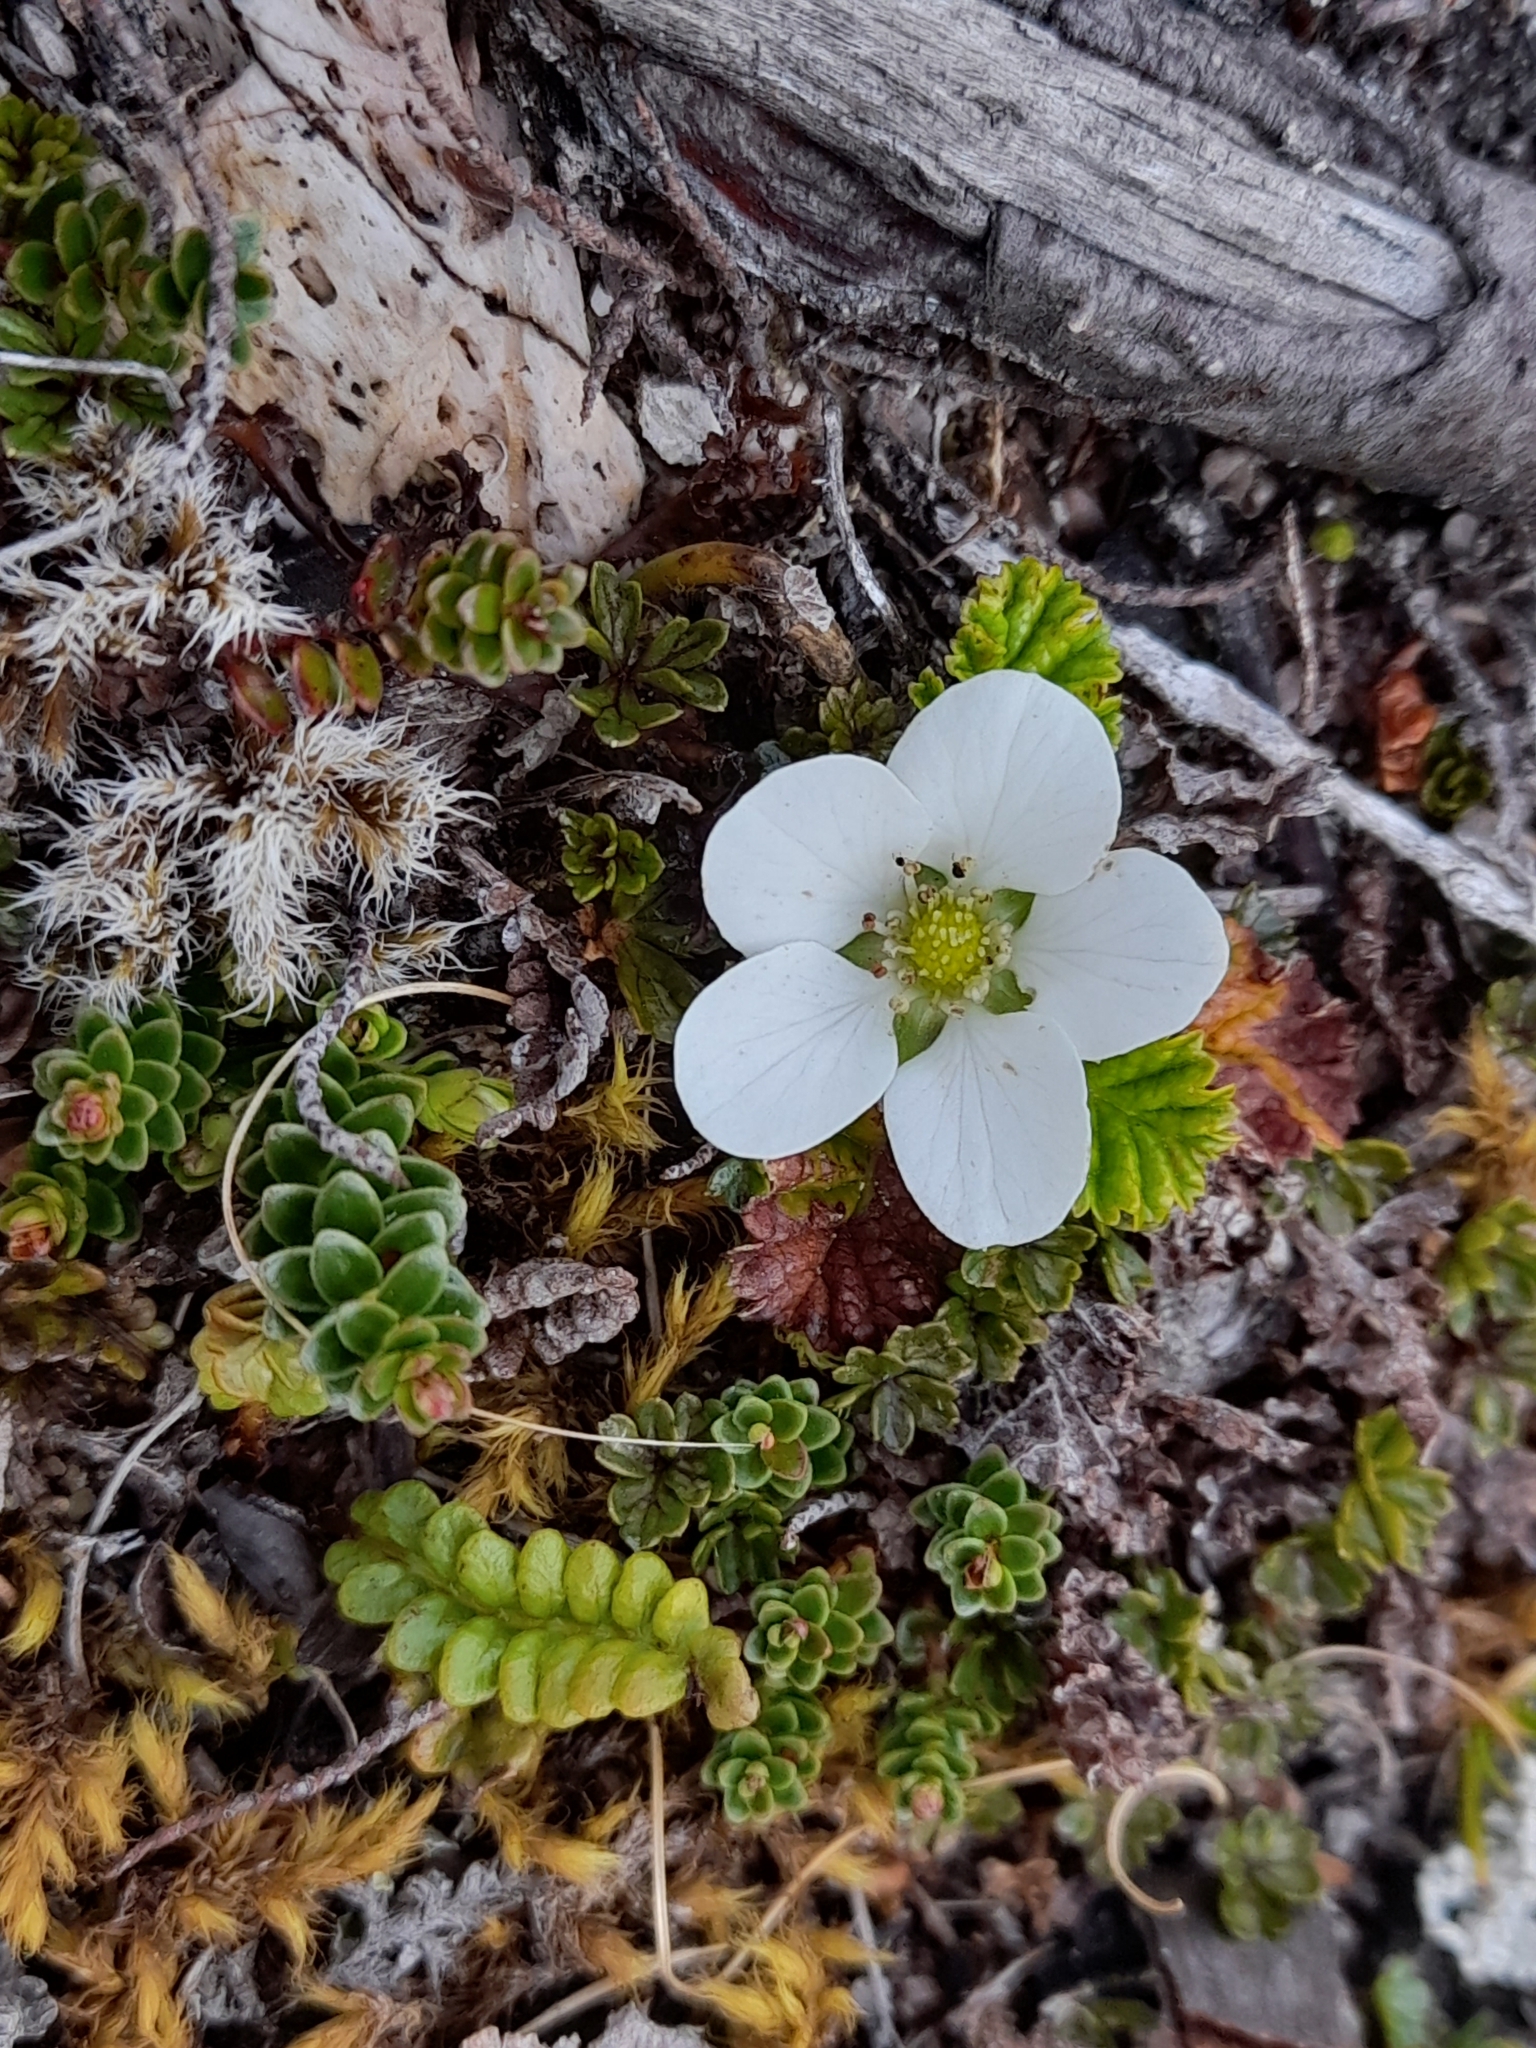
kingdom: Plantae
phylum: Tracheophyta
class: Magnoliopsida
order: Rosales
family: Rosaceae
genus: Rubus
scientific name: Rubus geoides
